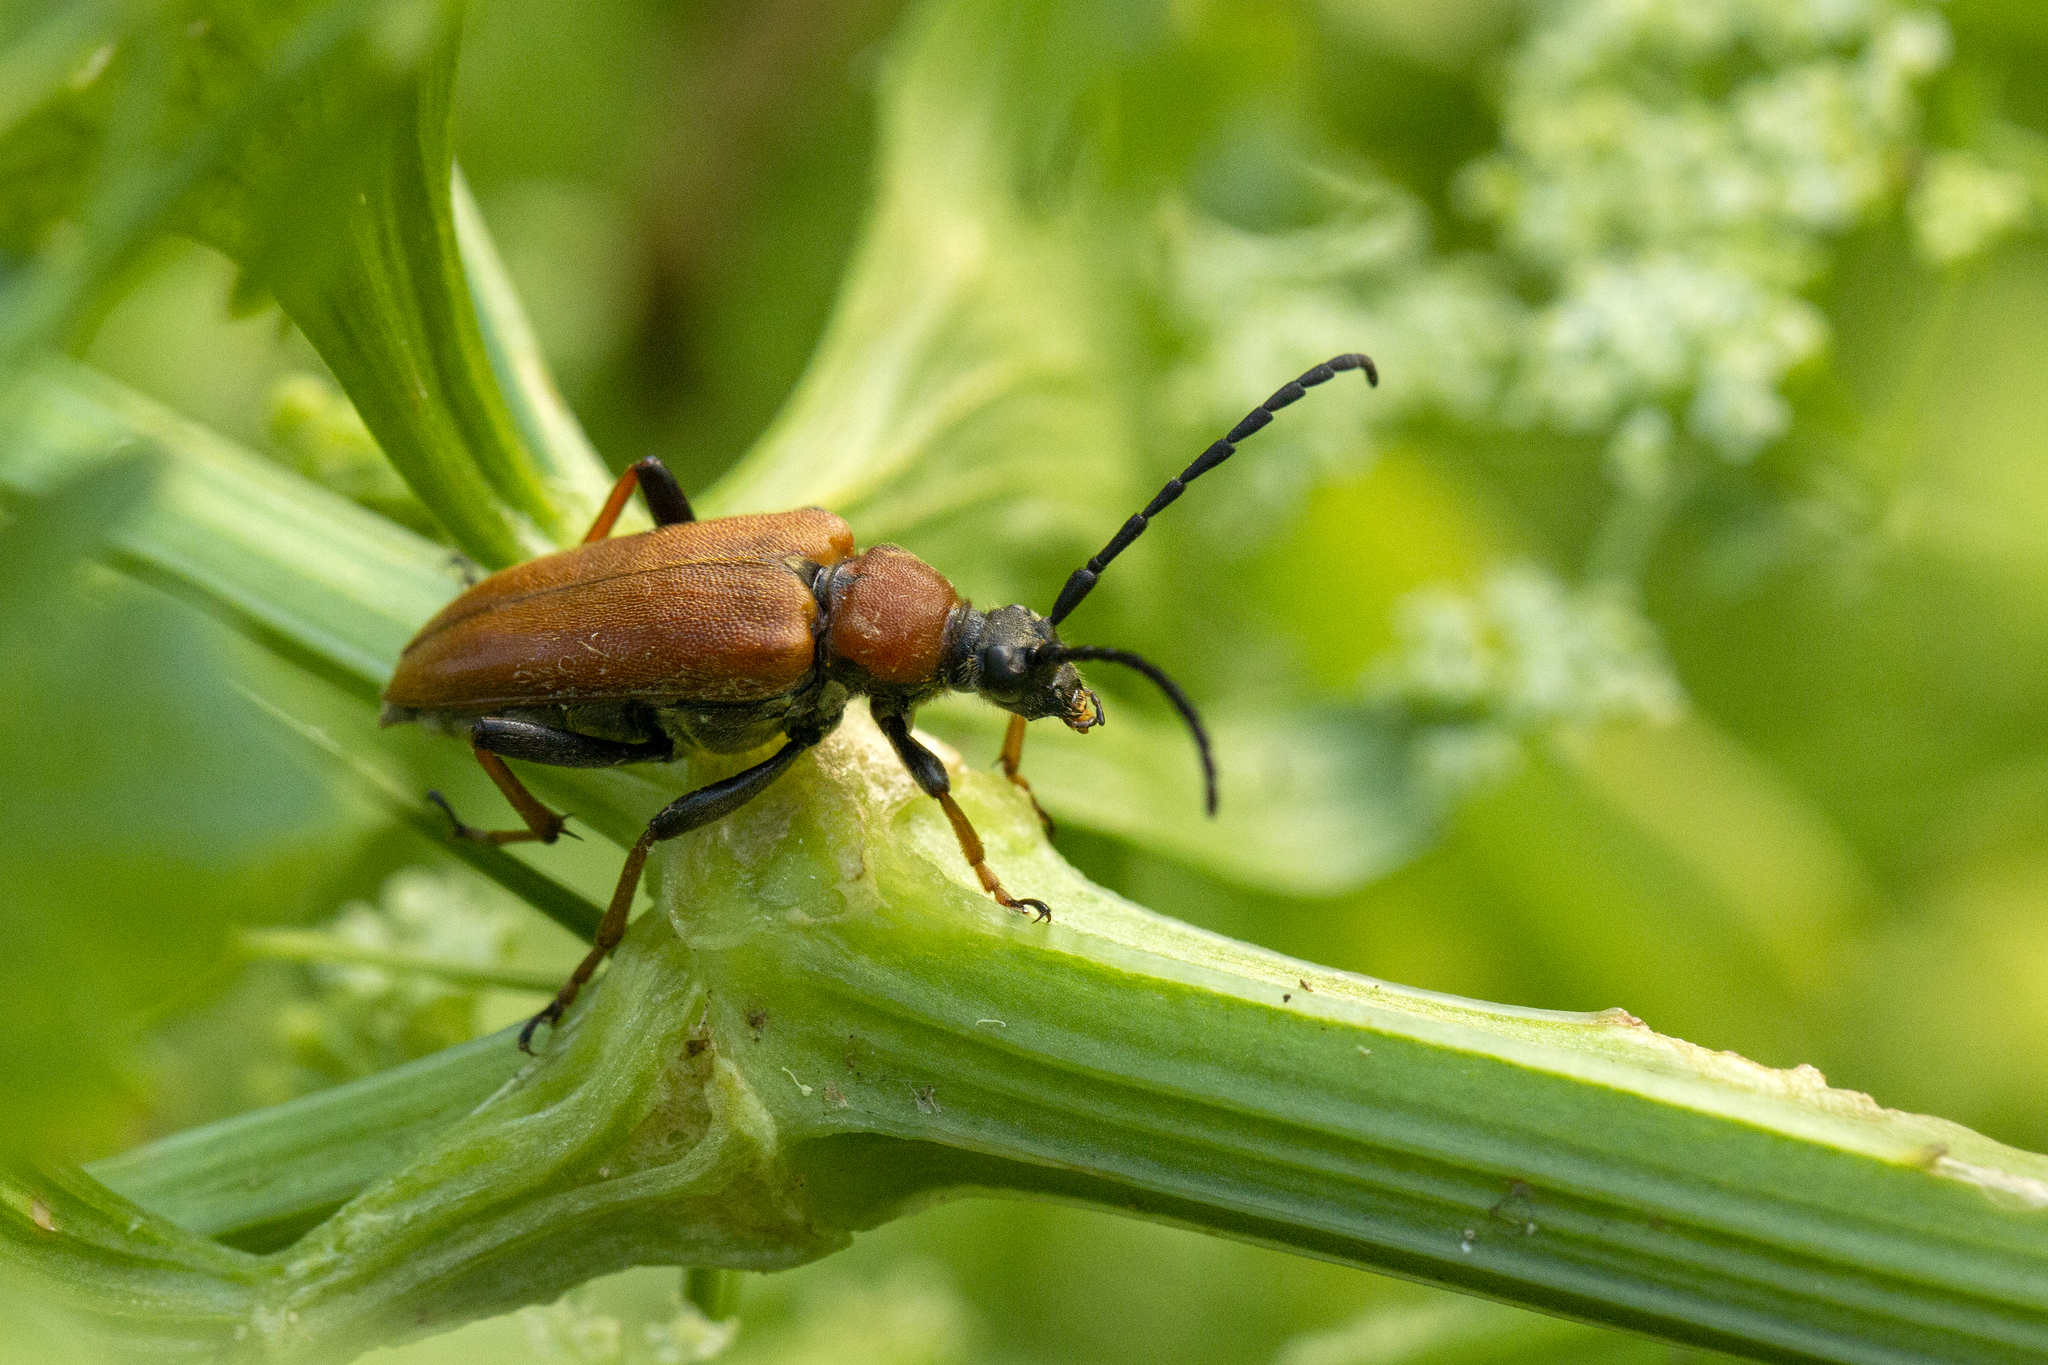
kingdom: Animalia
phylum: Arthropoda
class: Insecta
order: Coleoptera
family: Cerambycidae
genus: Stictoleptura
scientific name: Stictoleptura rubra
